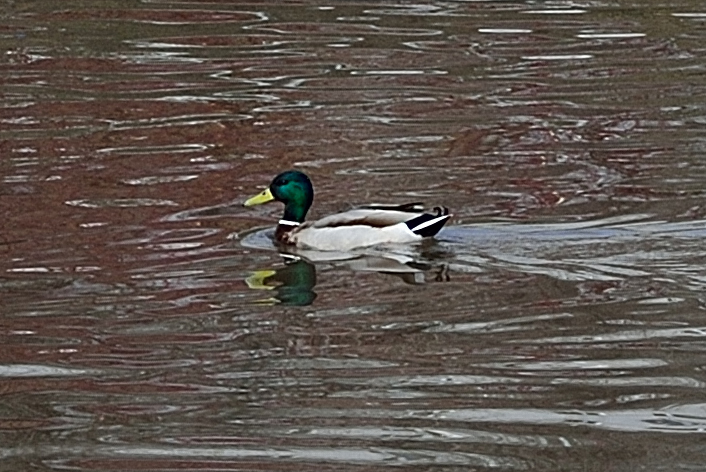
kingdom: Animalia
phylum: Chordata
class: Aves
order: Anseriformes
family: Anatidae
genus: Anas
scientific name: Anas platyrhynchos
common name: Mallard
